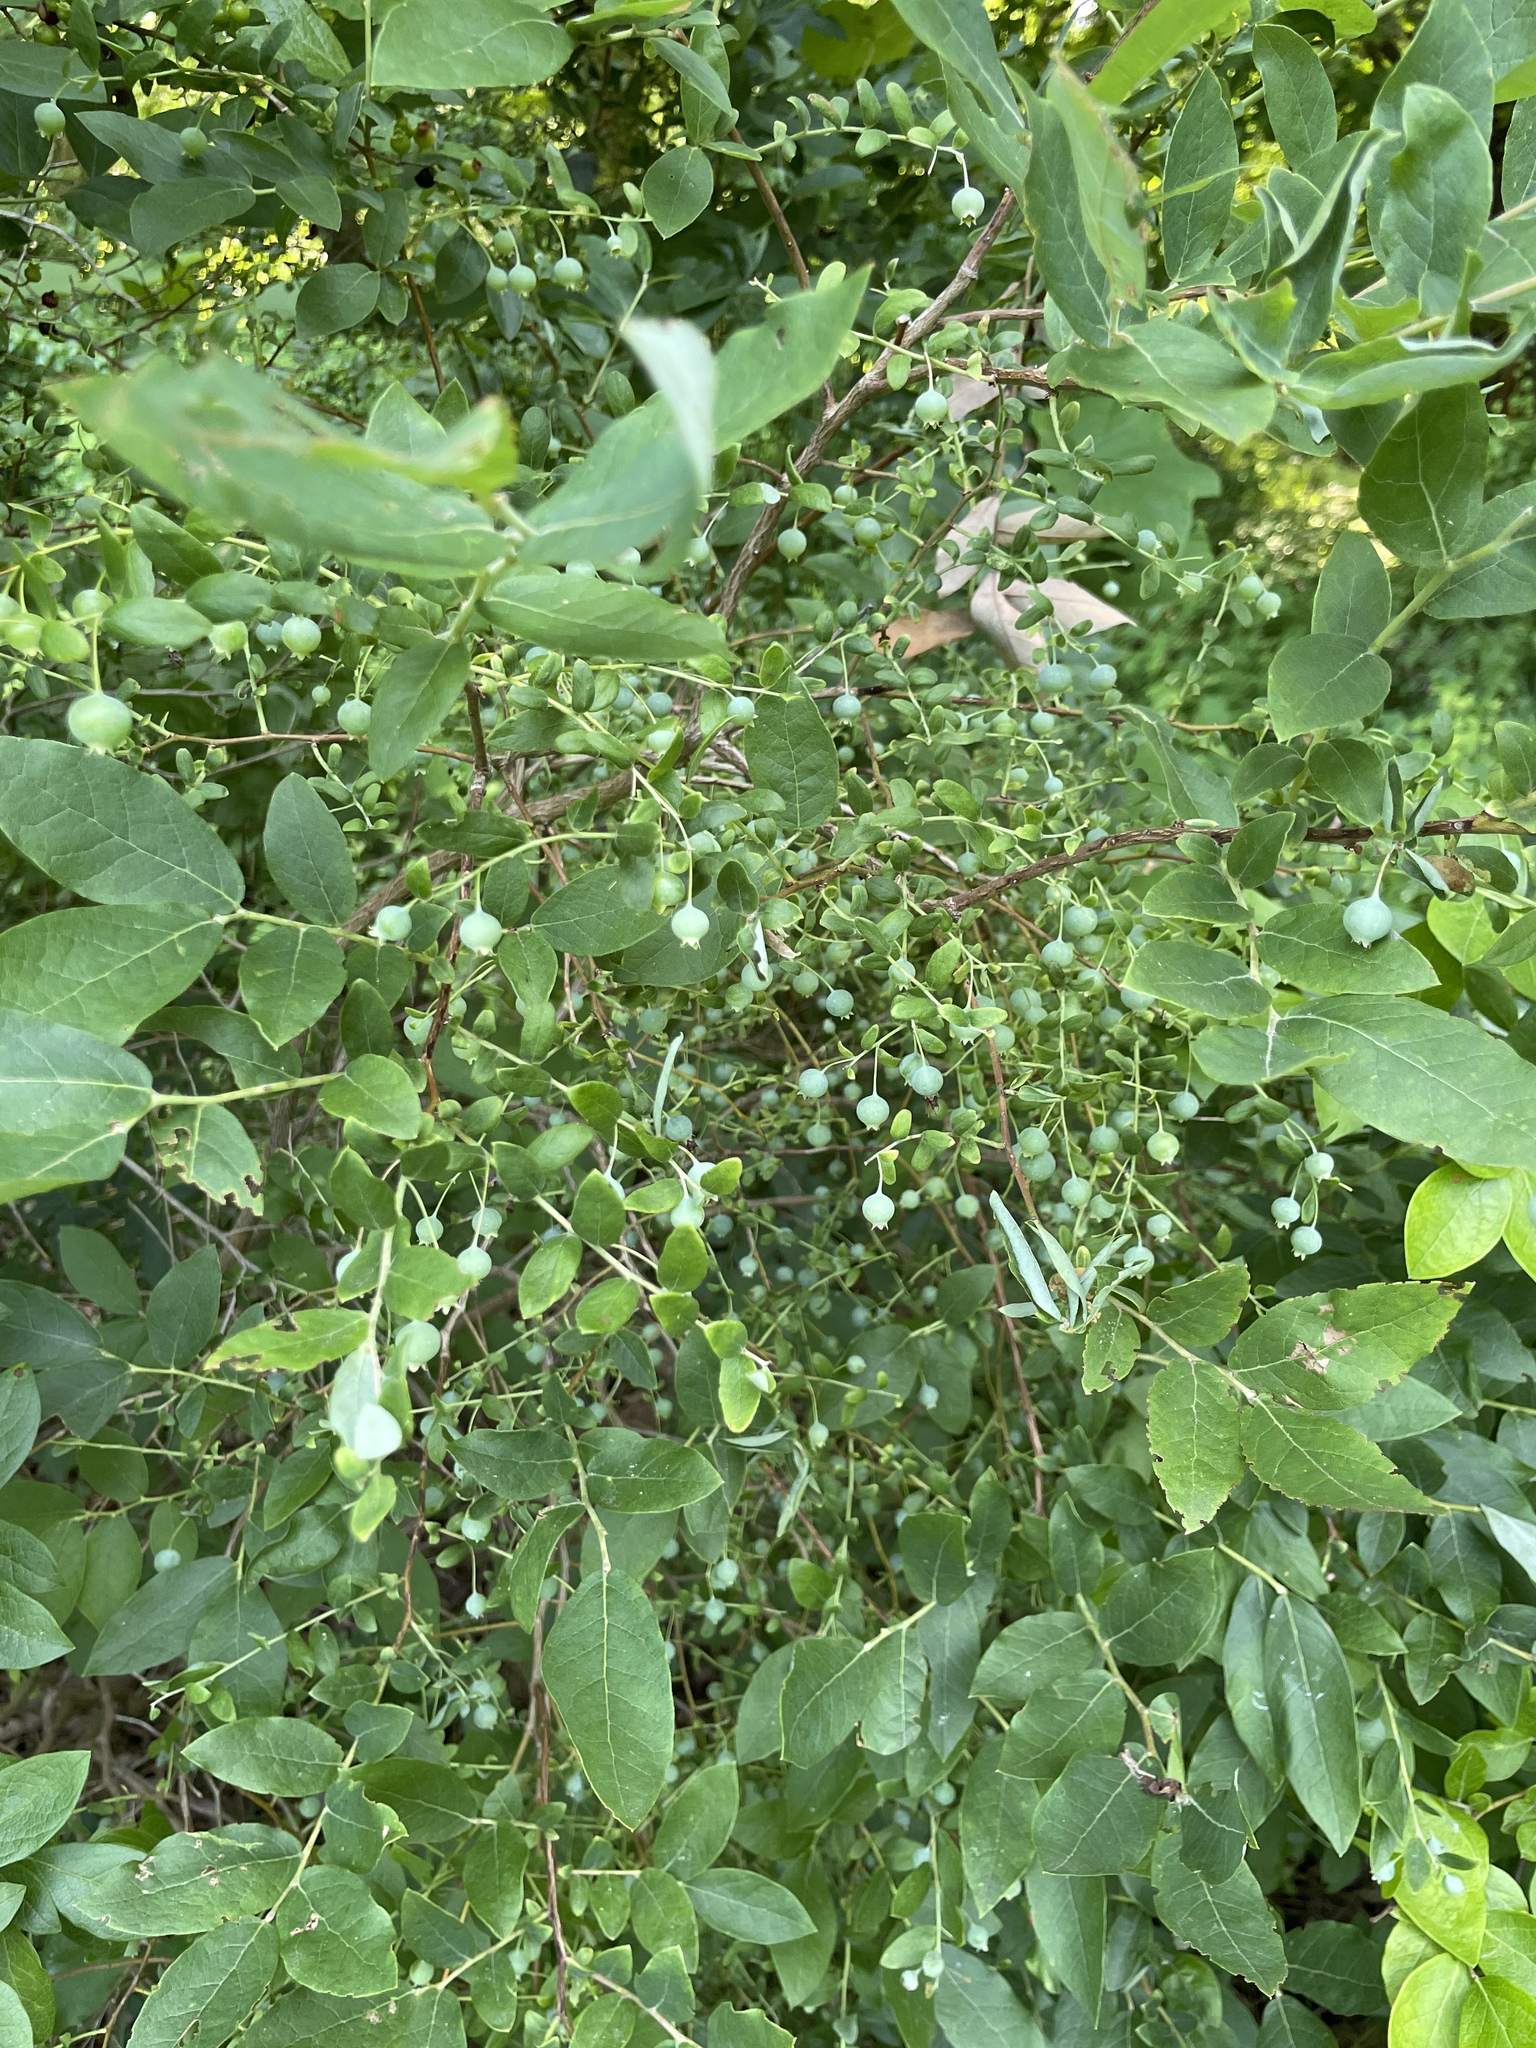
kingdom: Plantae
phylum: Tracheophyta
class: Magnoliopsida
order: Ericales
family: Ericaceae
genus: Vaccinium
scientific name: Vaccinium stamineum
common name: Deerberry
